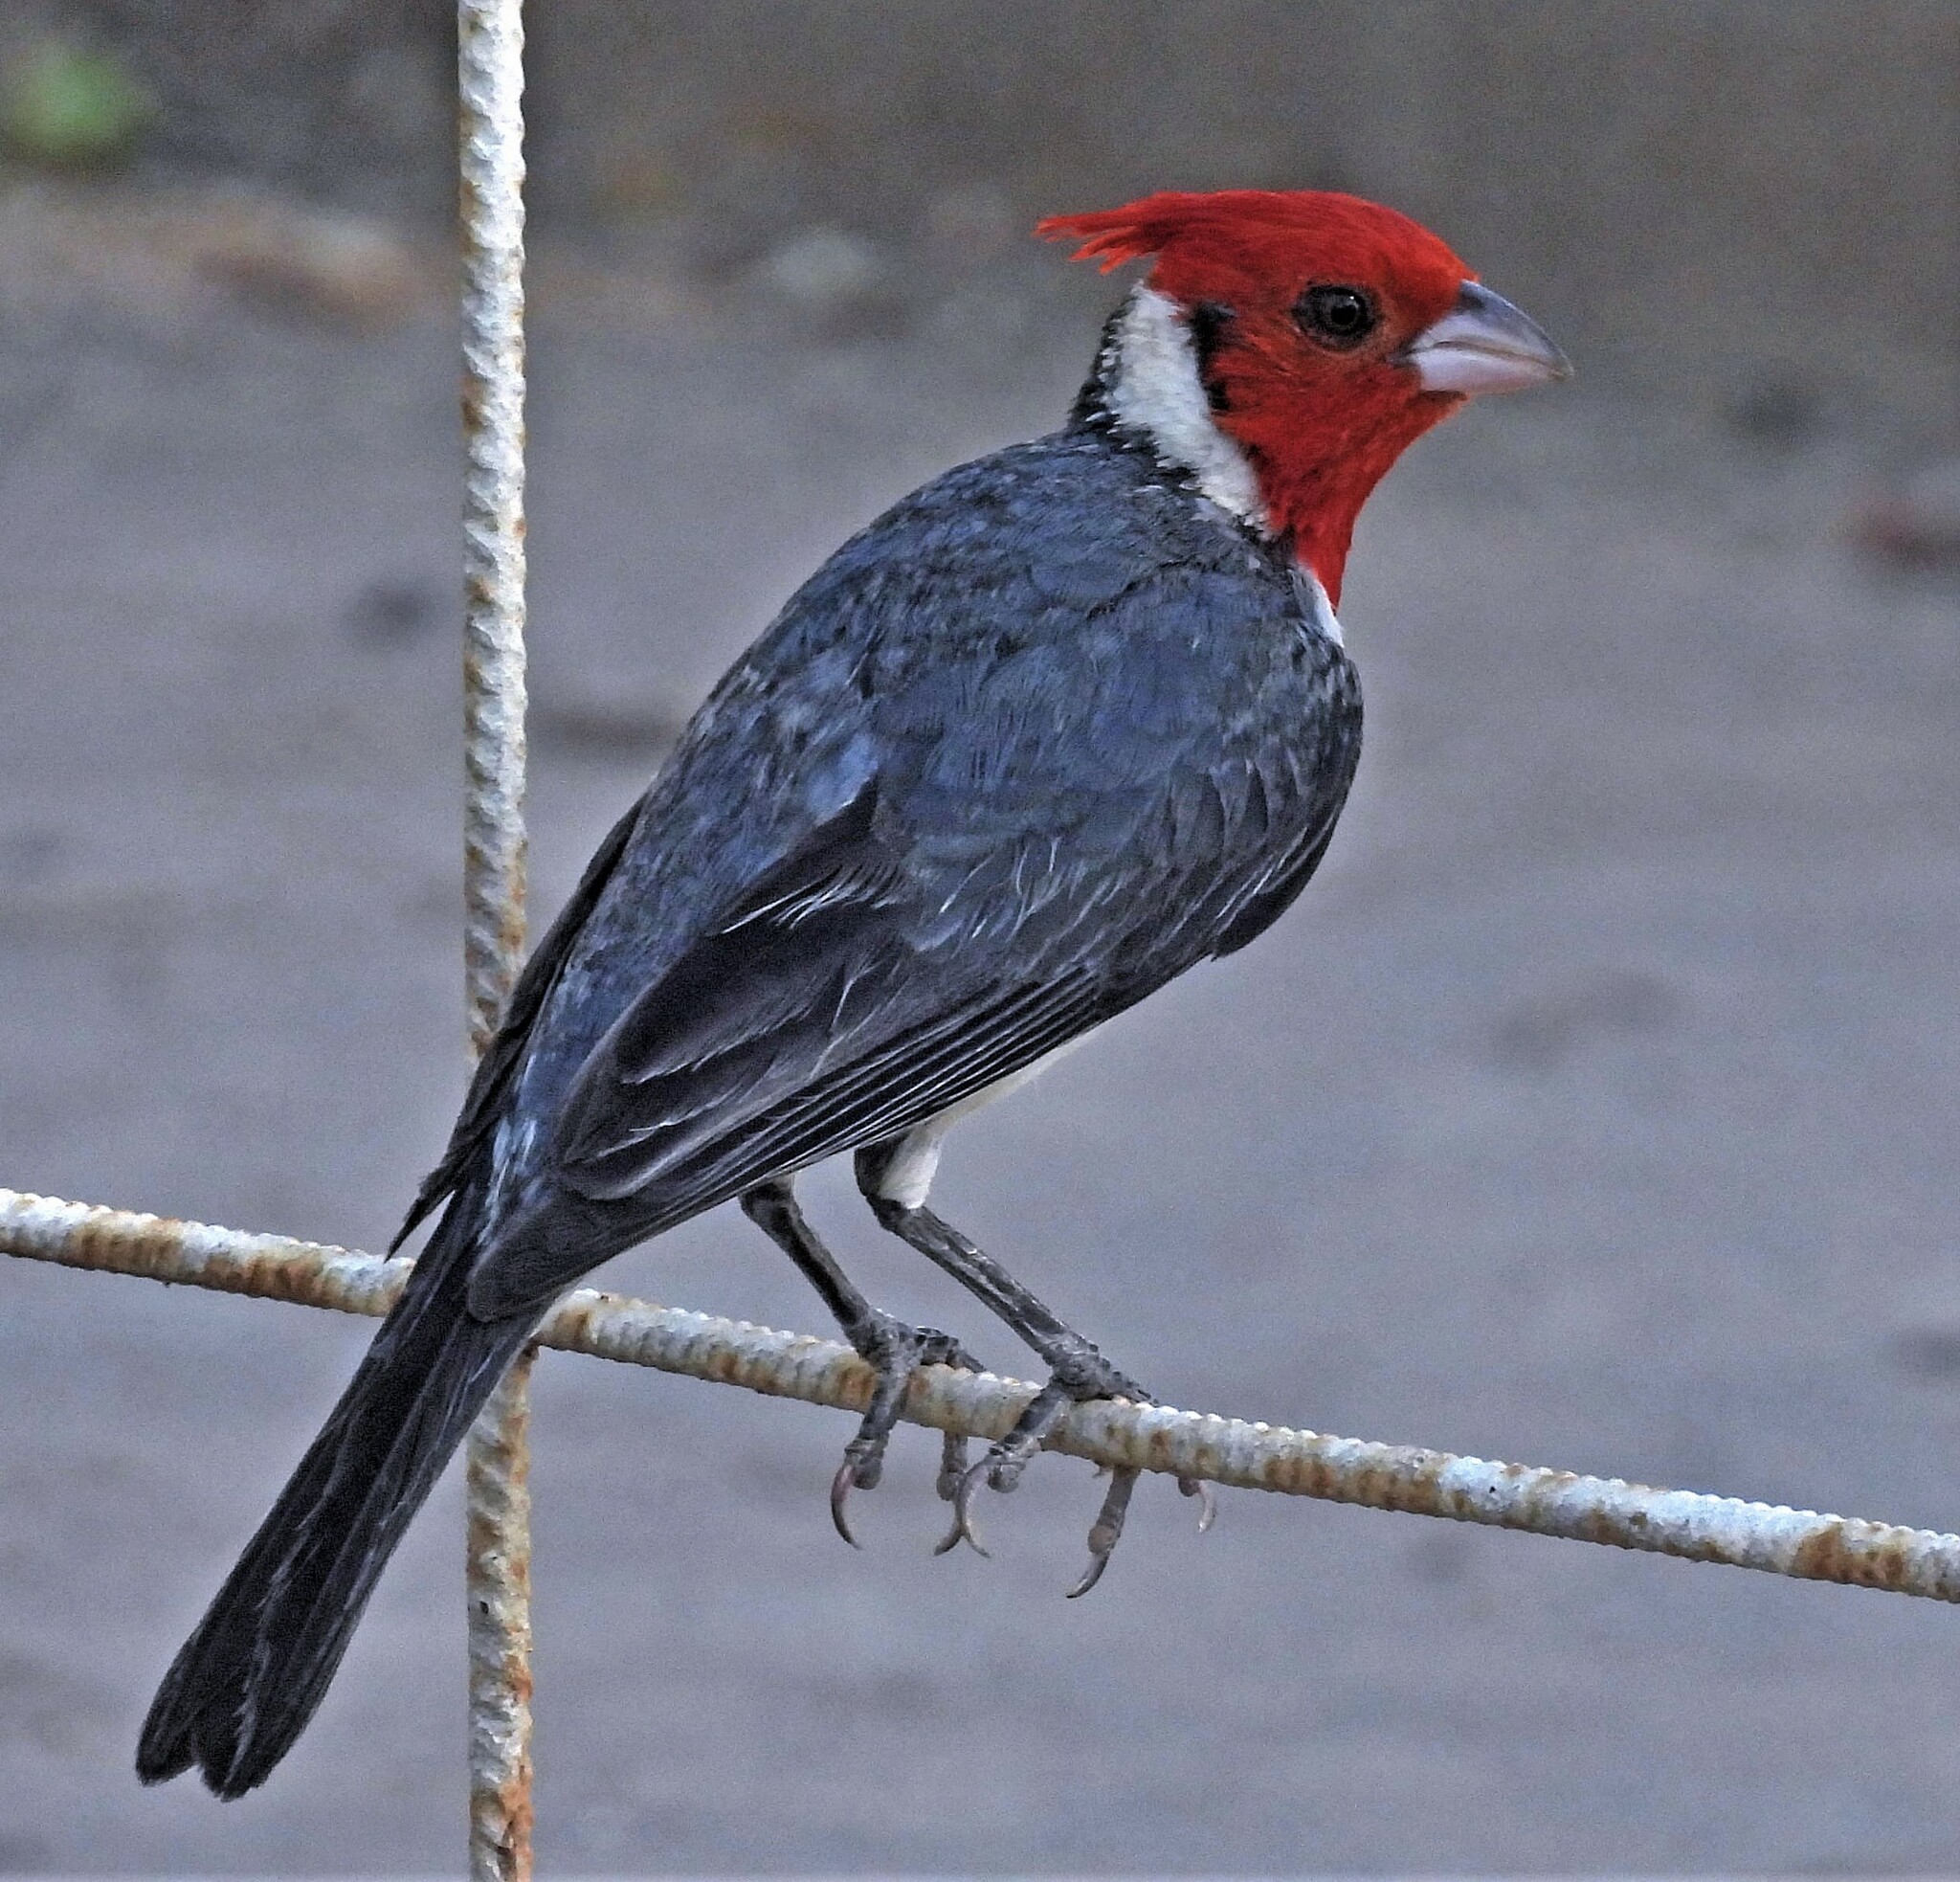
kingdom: Animalia
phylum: Chordata
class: Aves
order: Passeriformes
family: Thraupidae
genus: Paroaria
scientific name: Paroaria coronata
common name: Red-crested cardinal
